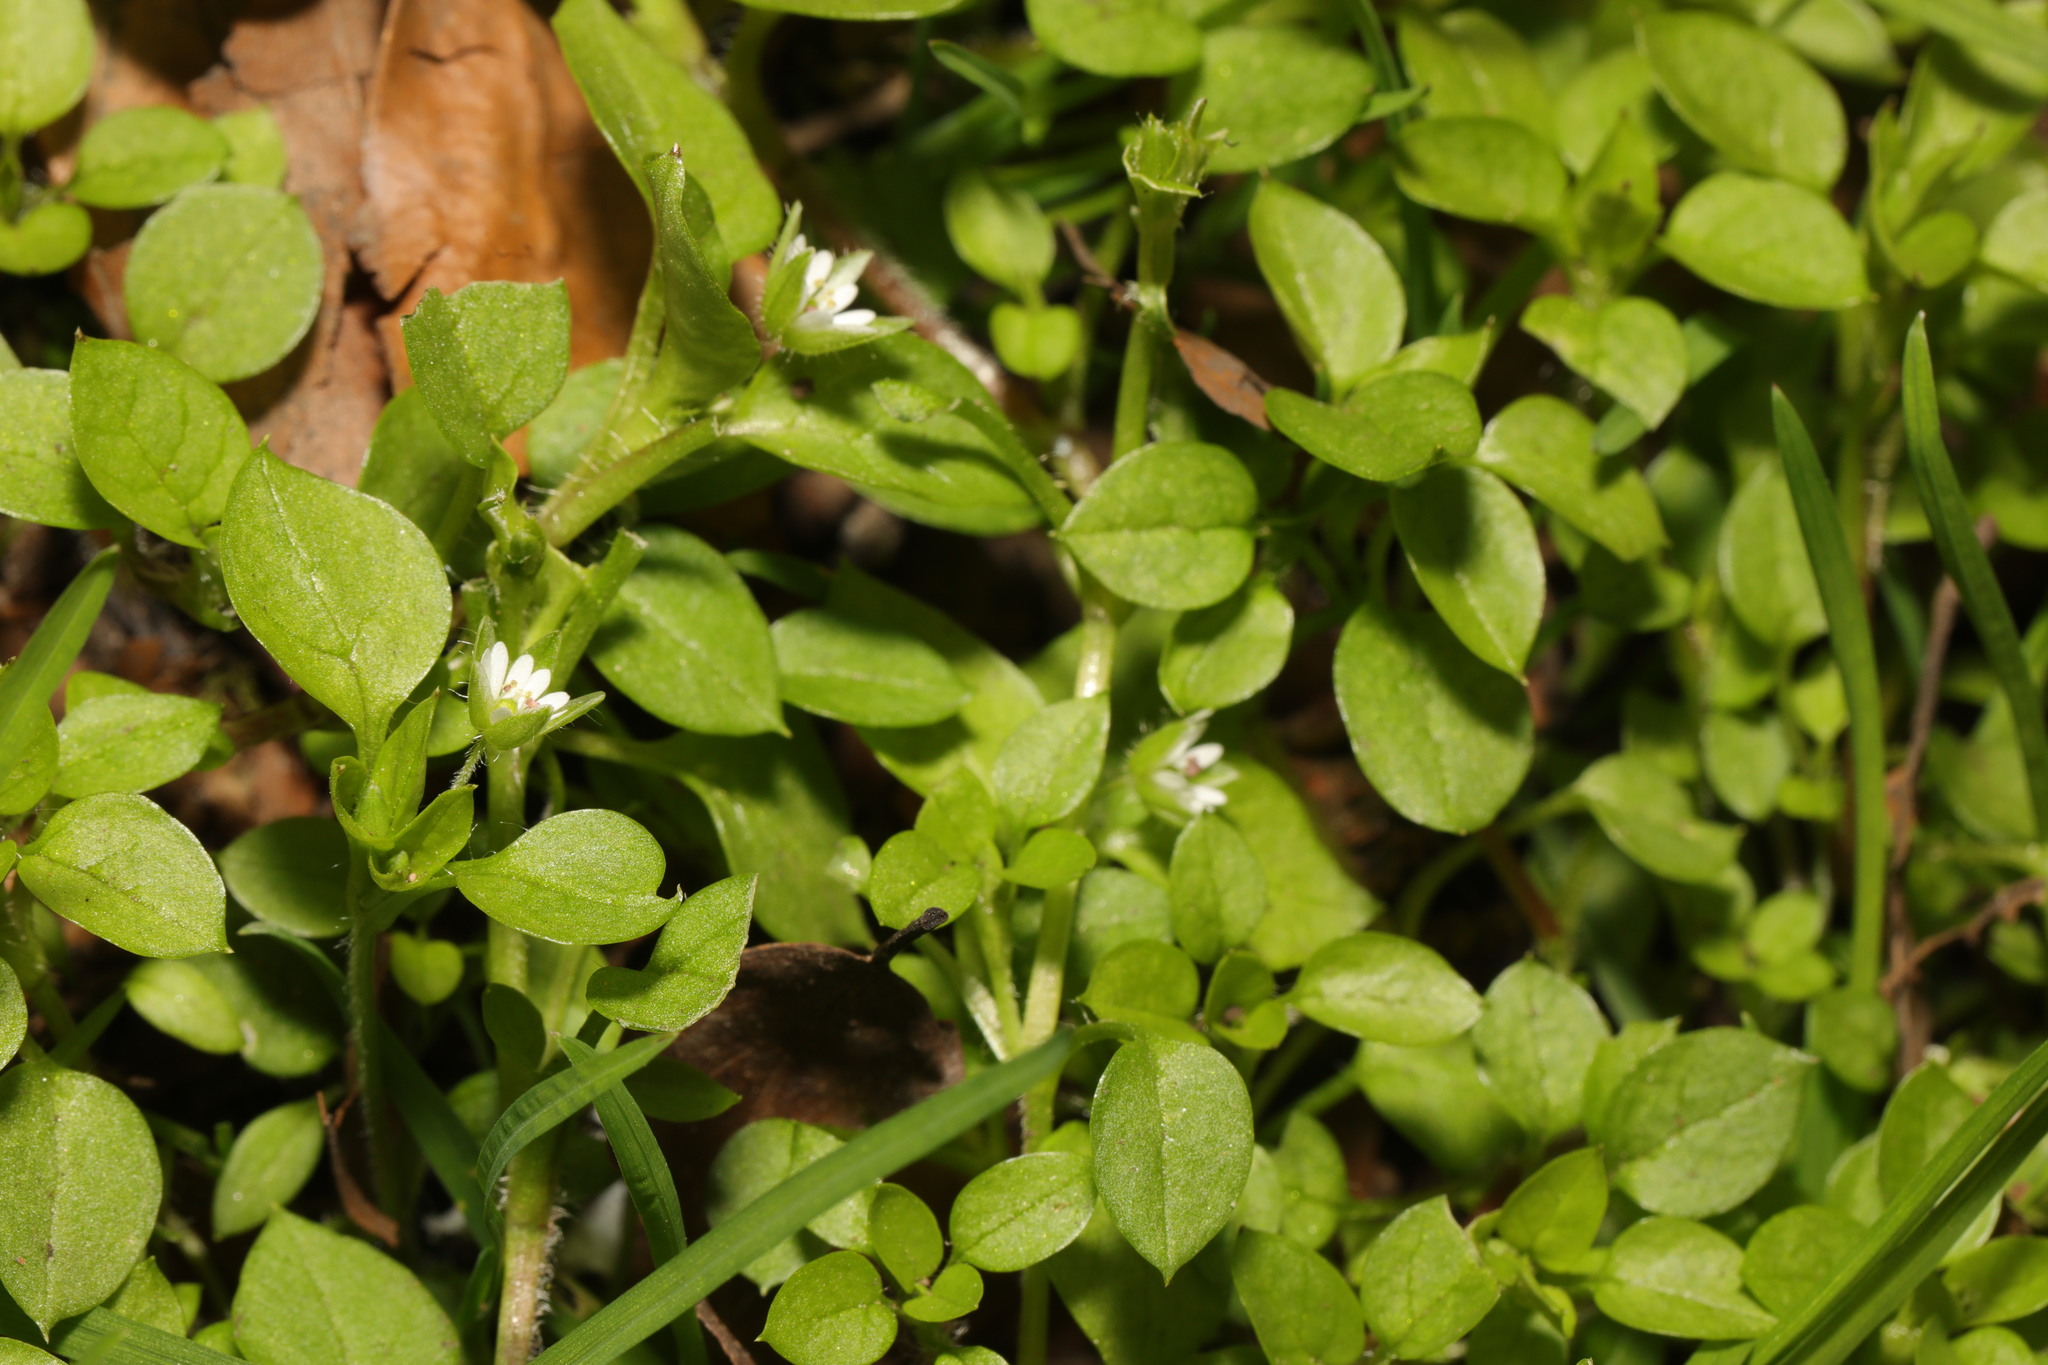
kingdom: Plantae
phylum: Tracheophyta
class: Magnoliopsida
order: Caryophyllales
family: Caryophyllaceae
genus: Stellaria
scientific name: Stellaria media
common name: Common chickweed
